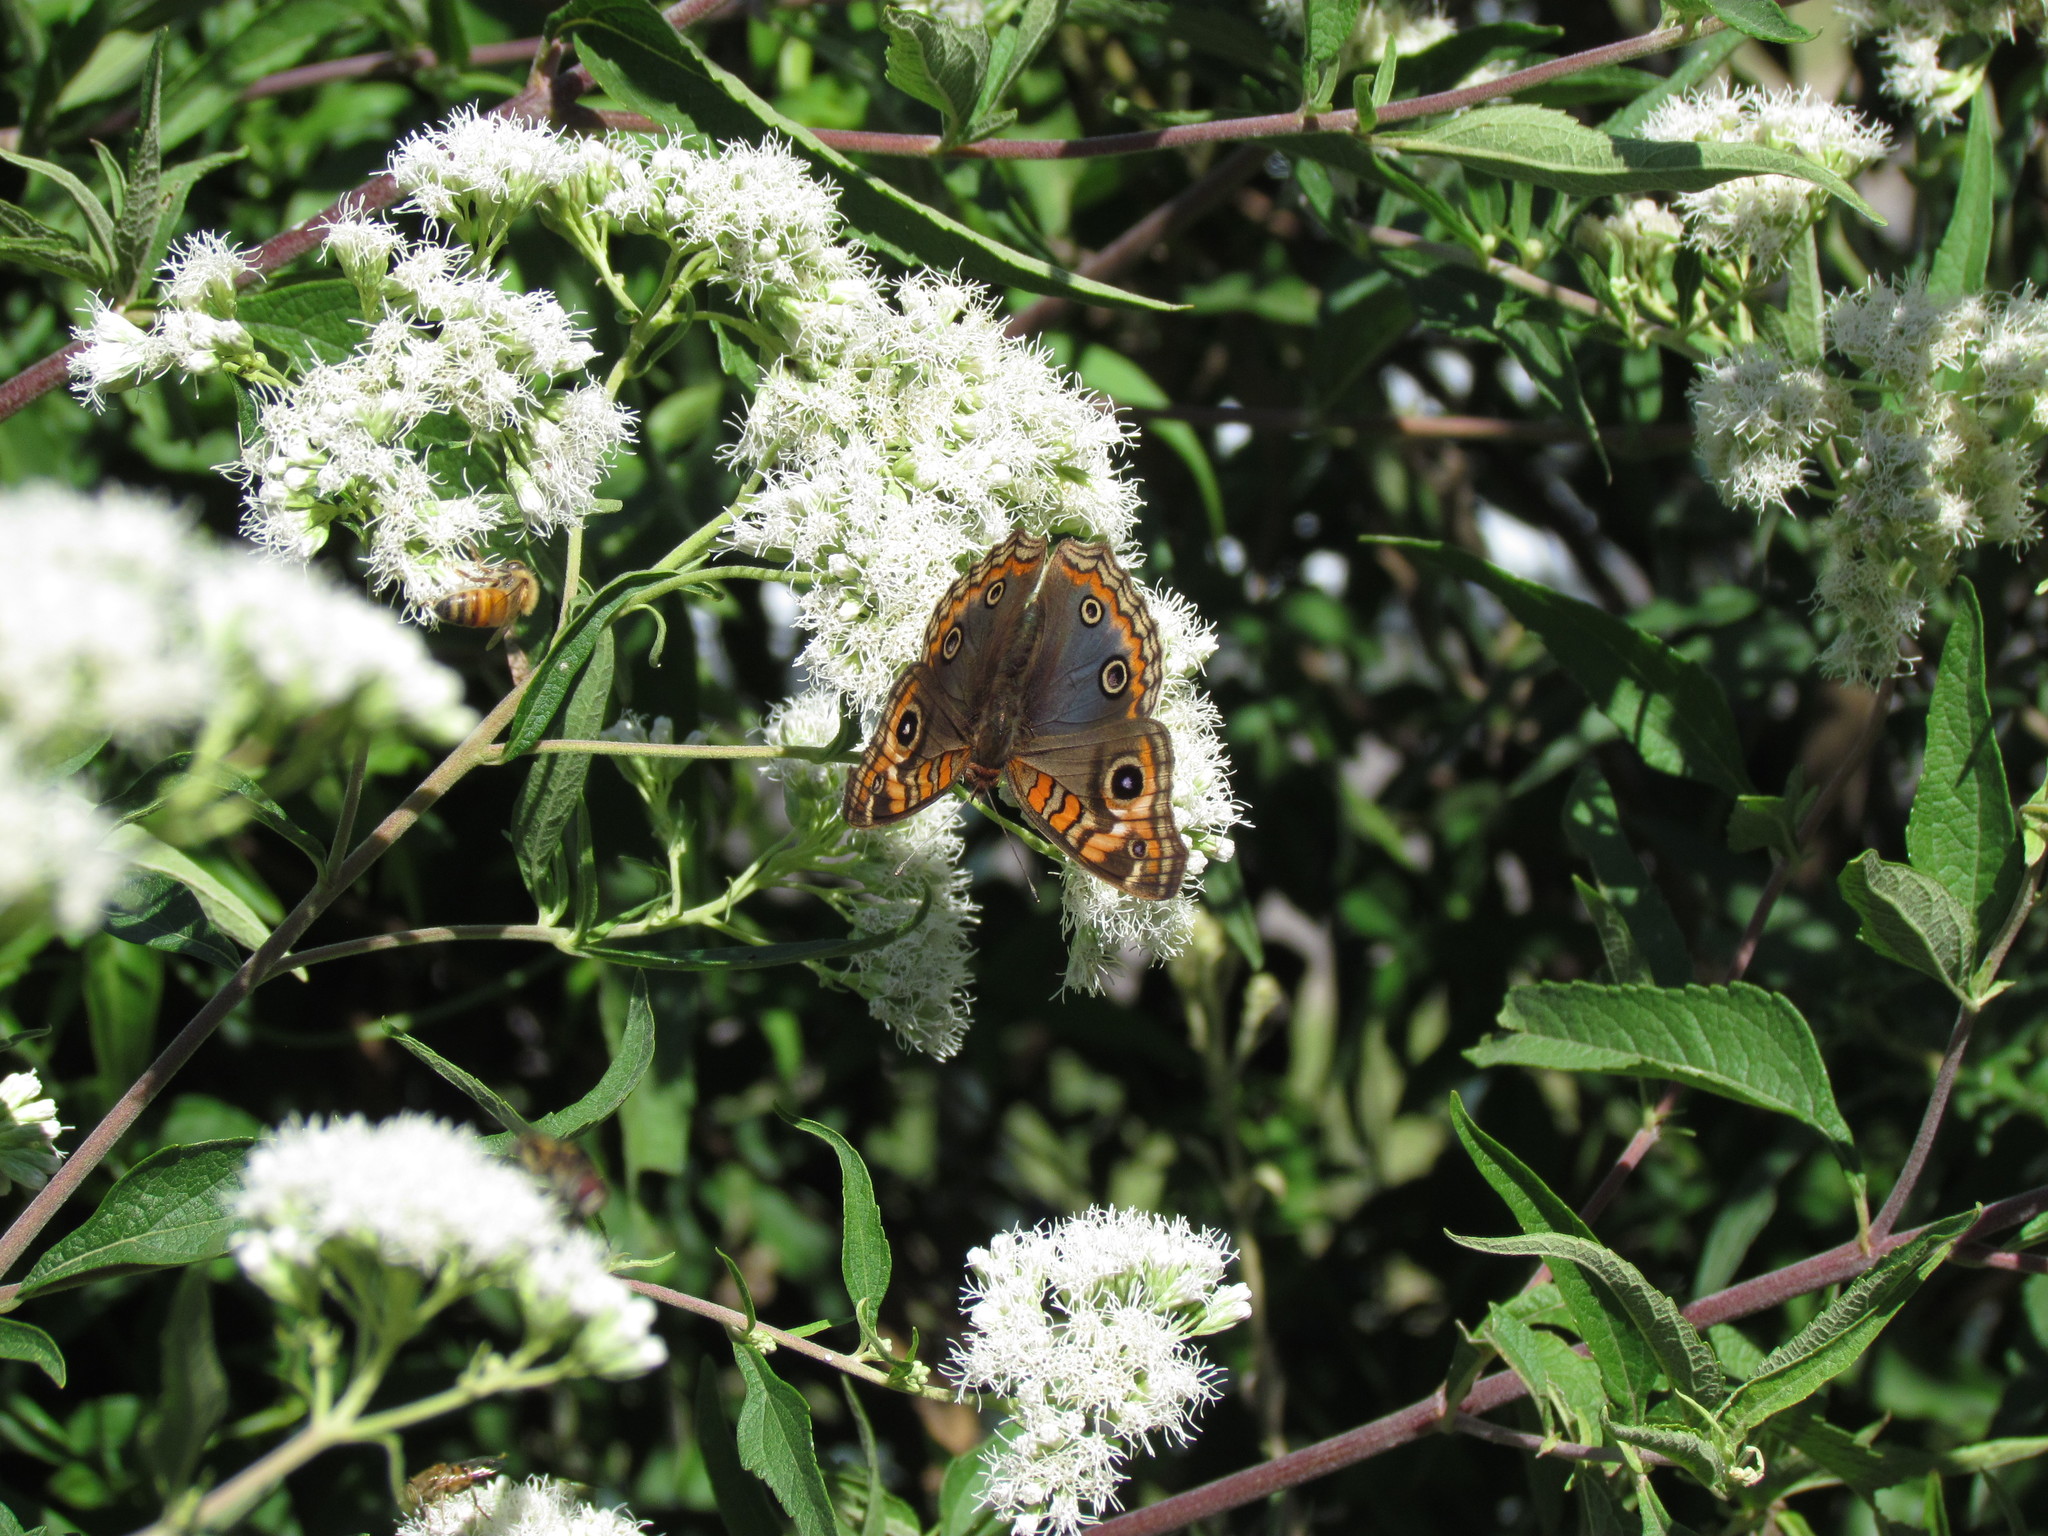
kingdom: Animalia
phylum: Arthropoda
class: Insecta
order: Lepidoptera
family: Nymphalidae
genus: Junonia
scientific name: Junonia lavinia
